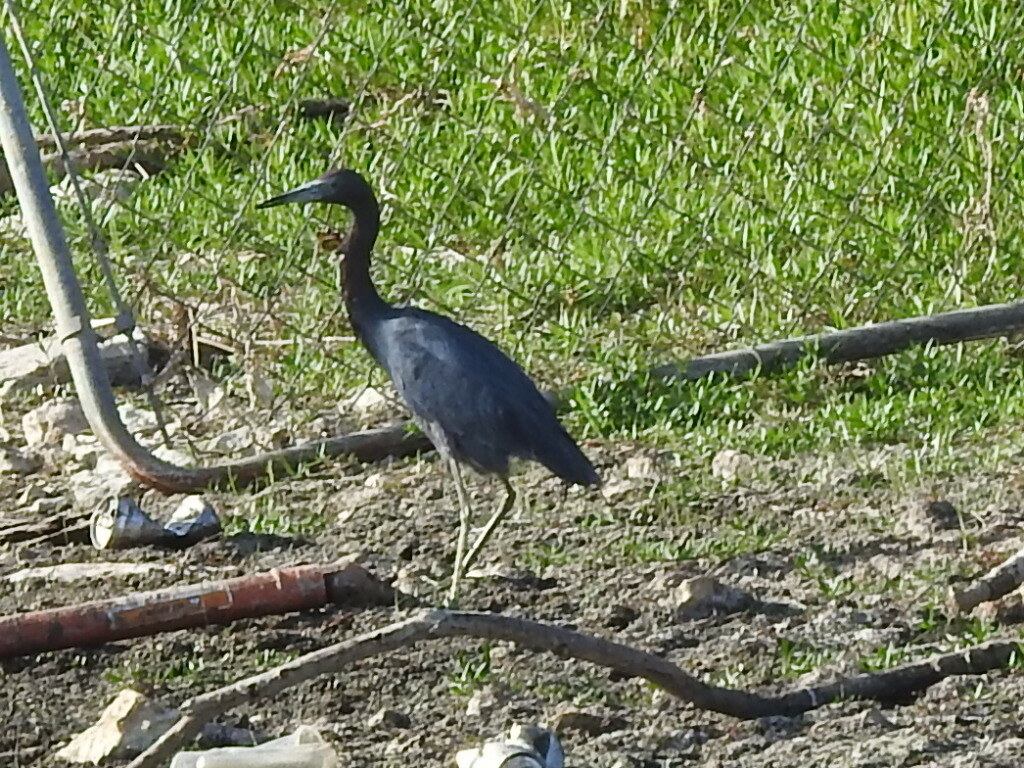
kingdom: Animalia
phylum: Chordata
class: Aves
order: Pelecaniformes
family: Ardeidae
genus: Egretta
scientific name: Egretta caerulea
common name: Little blue heron
